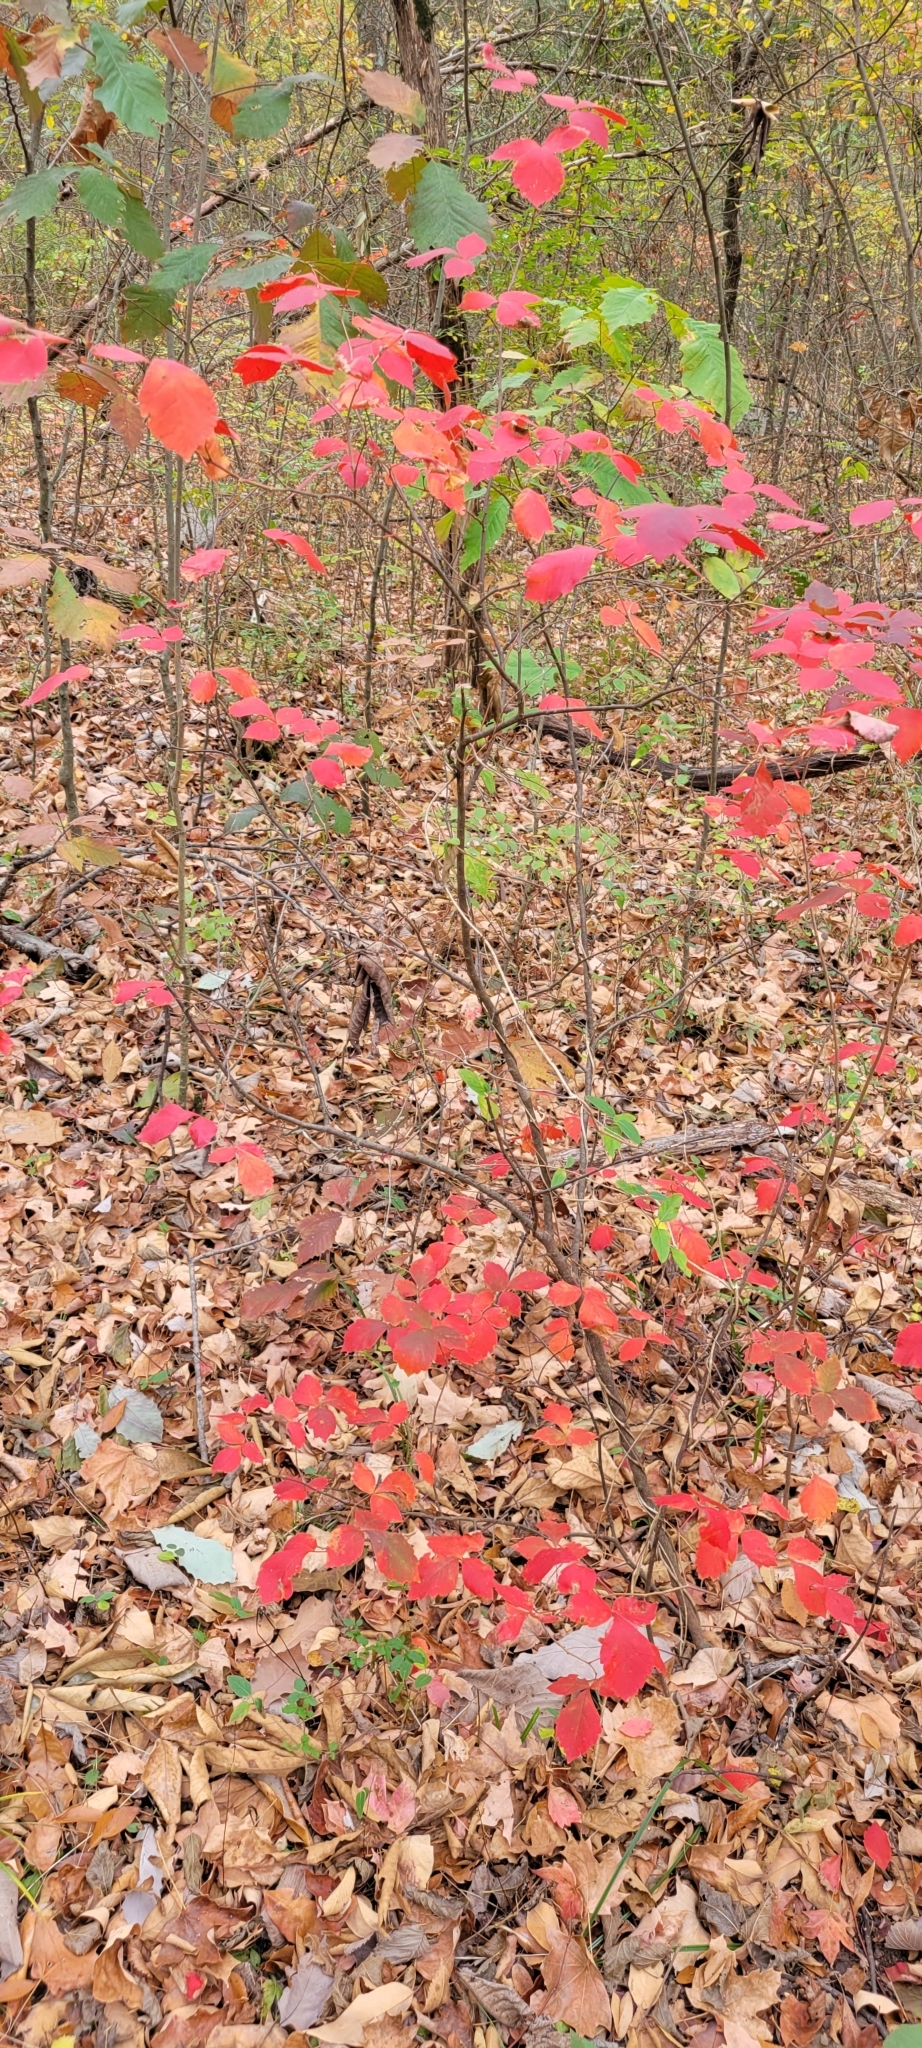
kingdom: Plantae
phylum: Tracheophyta
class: Magnoliopsida
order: Sapindales
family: Anacardiaceae
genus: Rhus
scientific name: Rhus aromatica
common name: Aromatic sumac
